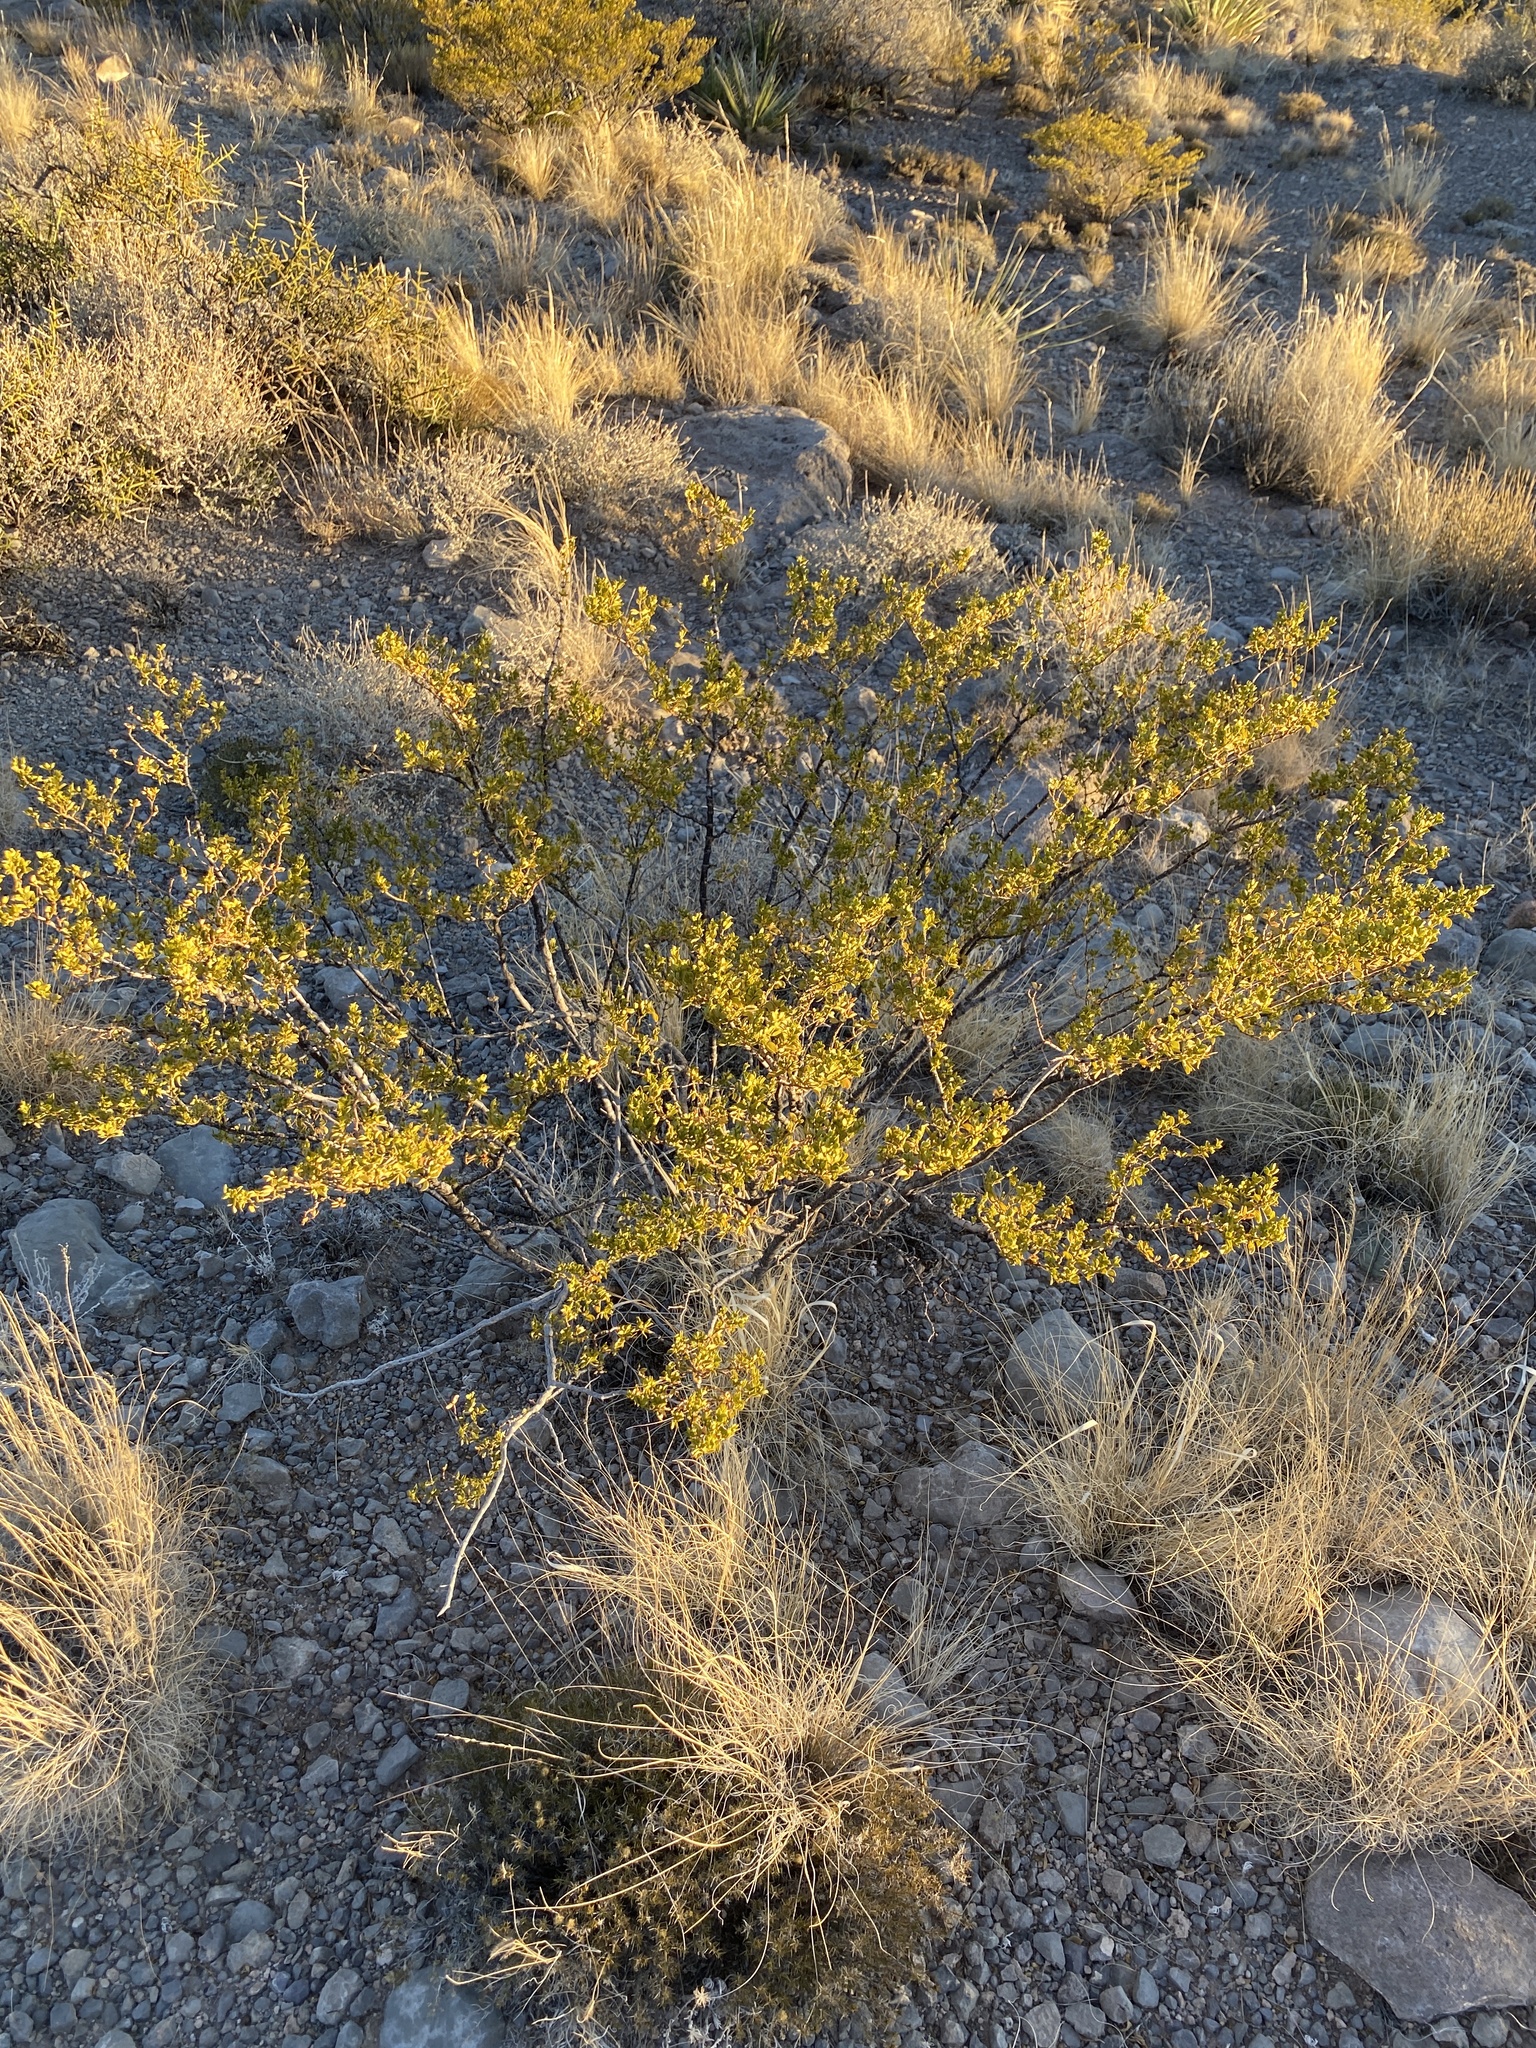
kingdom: Plantae
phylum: Tracheophyta
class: Magnoliopsida
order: Zygophyllales
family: Zygophyllaceae
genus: Larrea
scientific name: Larrea tridentata
